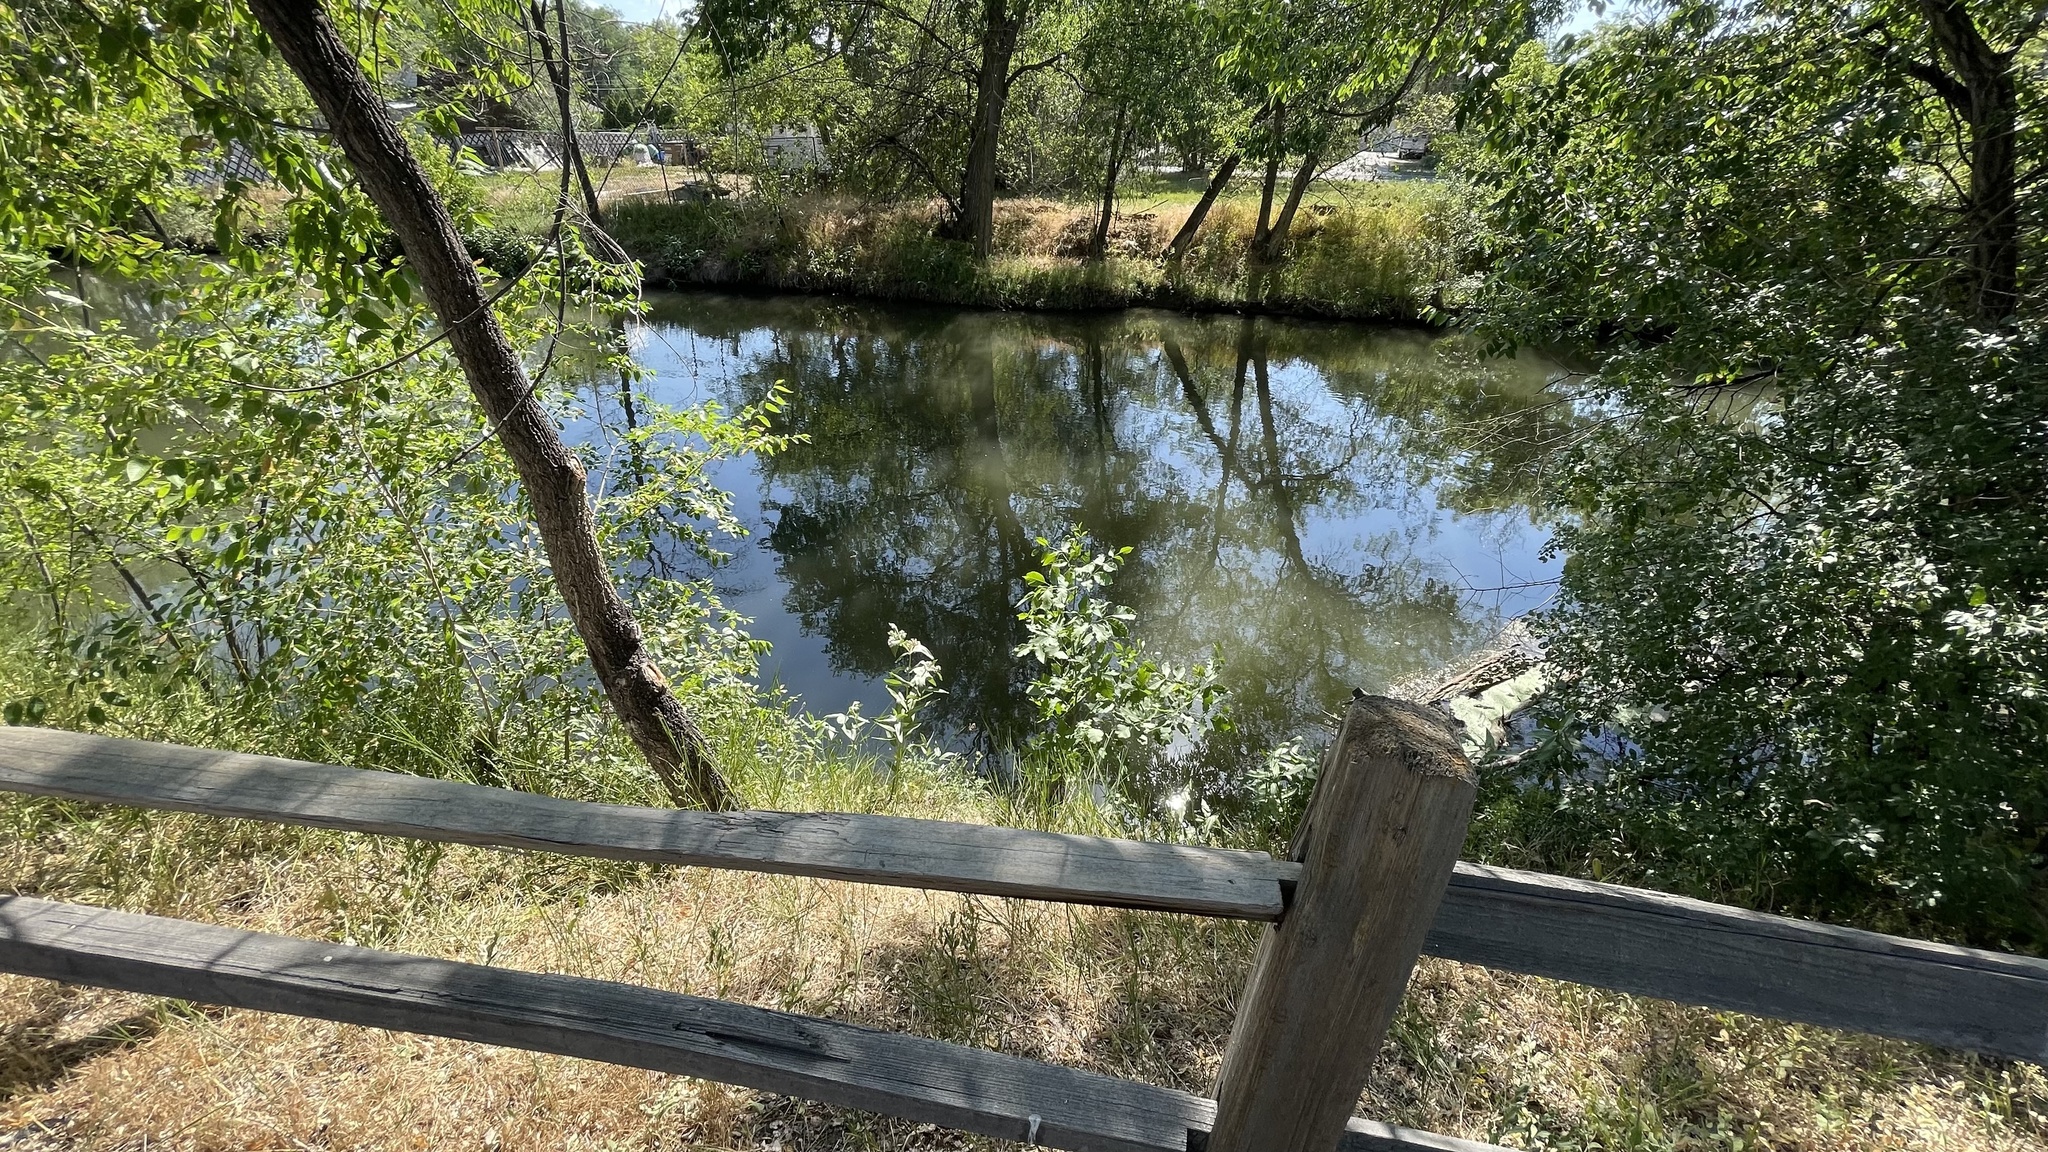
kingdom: Plantae
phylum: Tracheophyta
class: Magnoliopsida
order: Gentianales
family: Apocynaceae
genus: Asclepias
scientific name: Asclepias speciosa
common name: Showy milkweed
